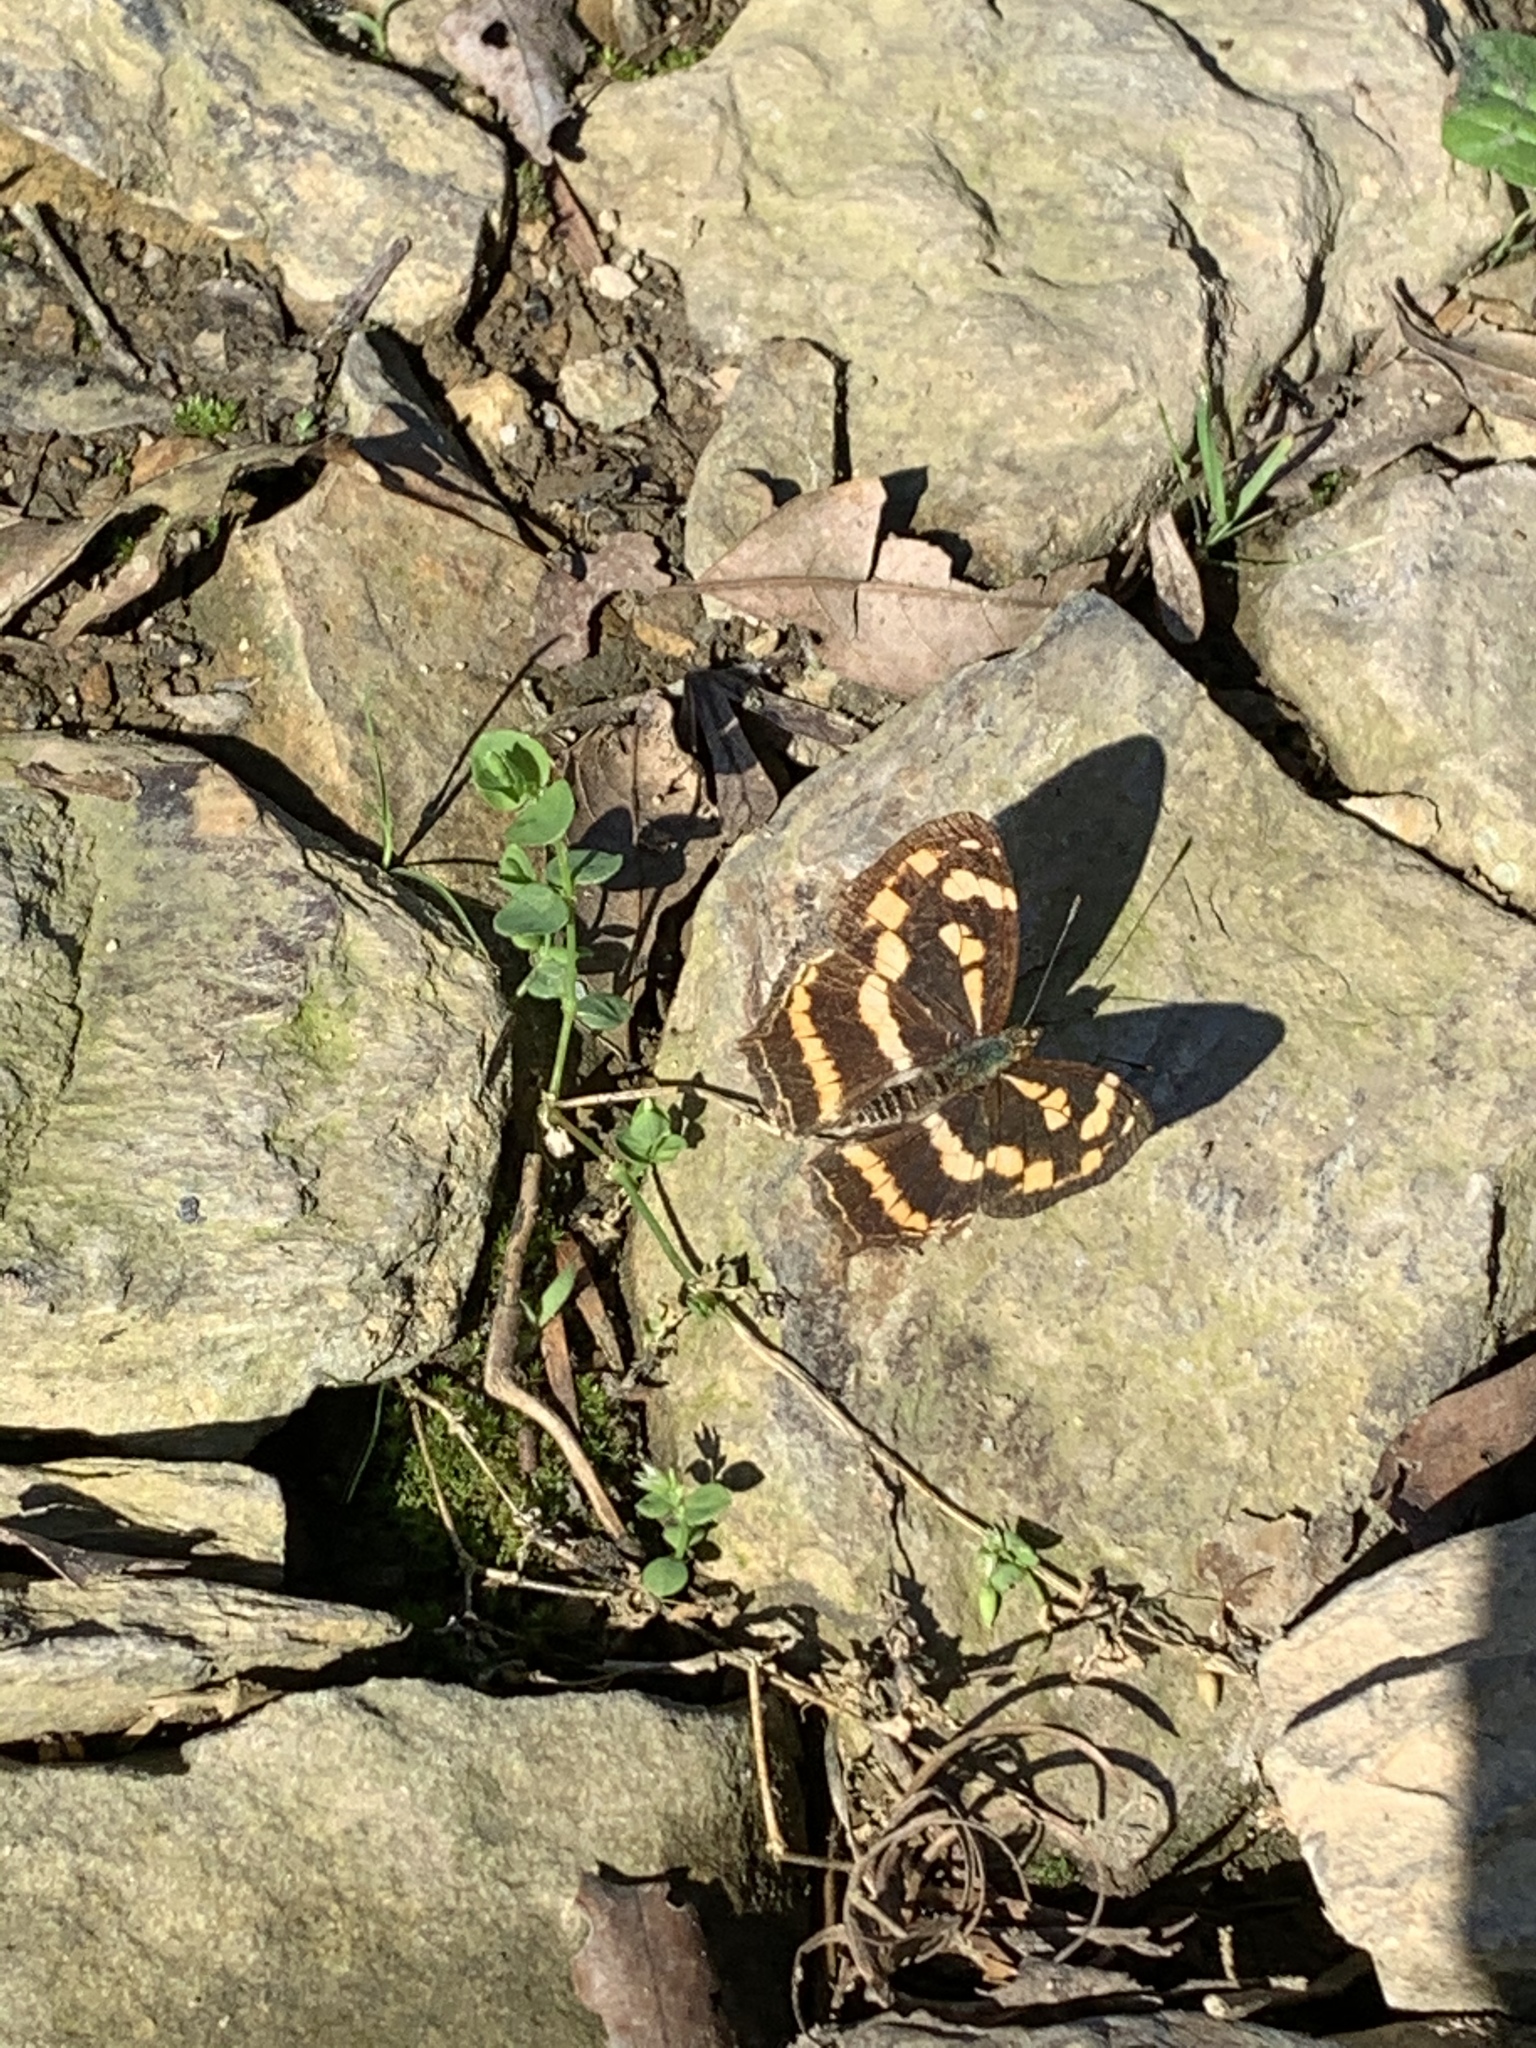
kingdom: Animalia
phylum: Arthropoda
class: Insecta
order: Lepidoptera
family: Nymphalidae
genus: Symbrenthia
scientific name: Symbrenthia hypselis
